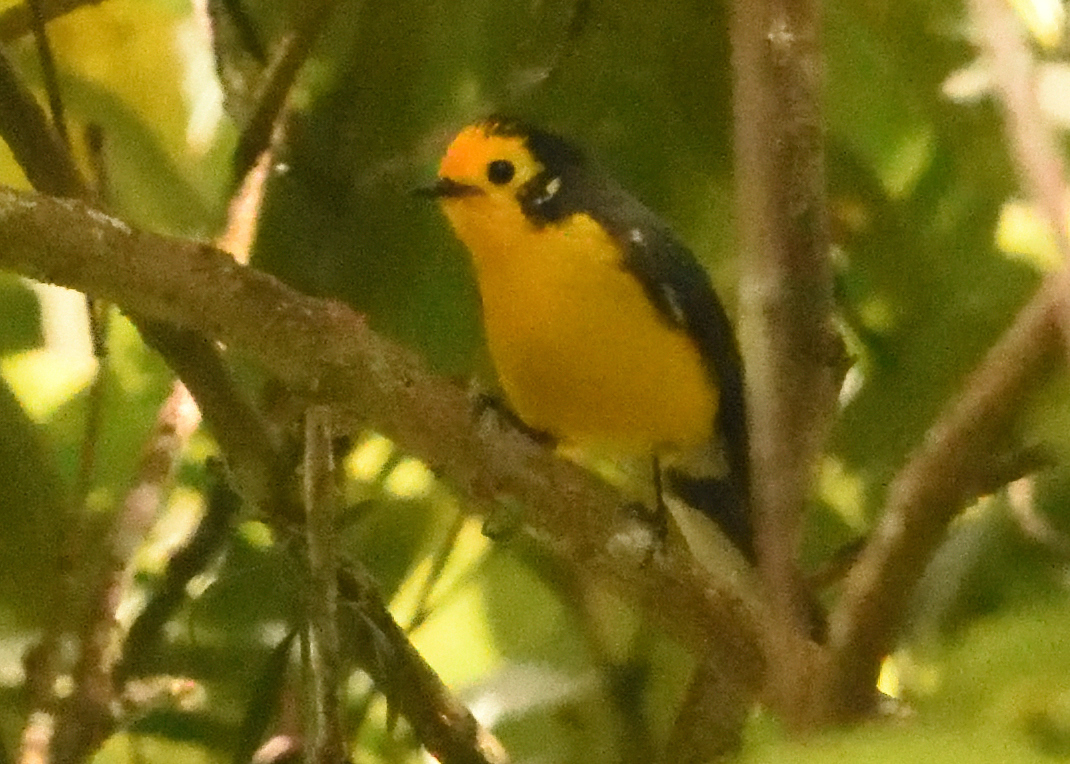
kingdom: Animalia
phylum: Chordata
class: Aves
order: Passeriformes
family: Parulidae
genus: Myioborus
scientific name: Myioborus ornatus
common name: Golden-fronted whitestart
